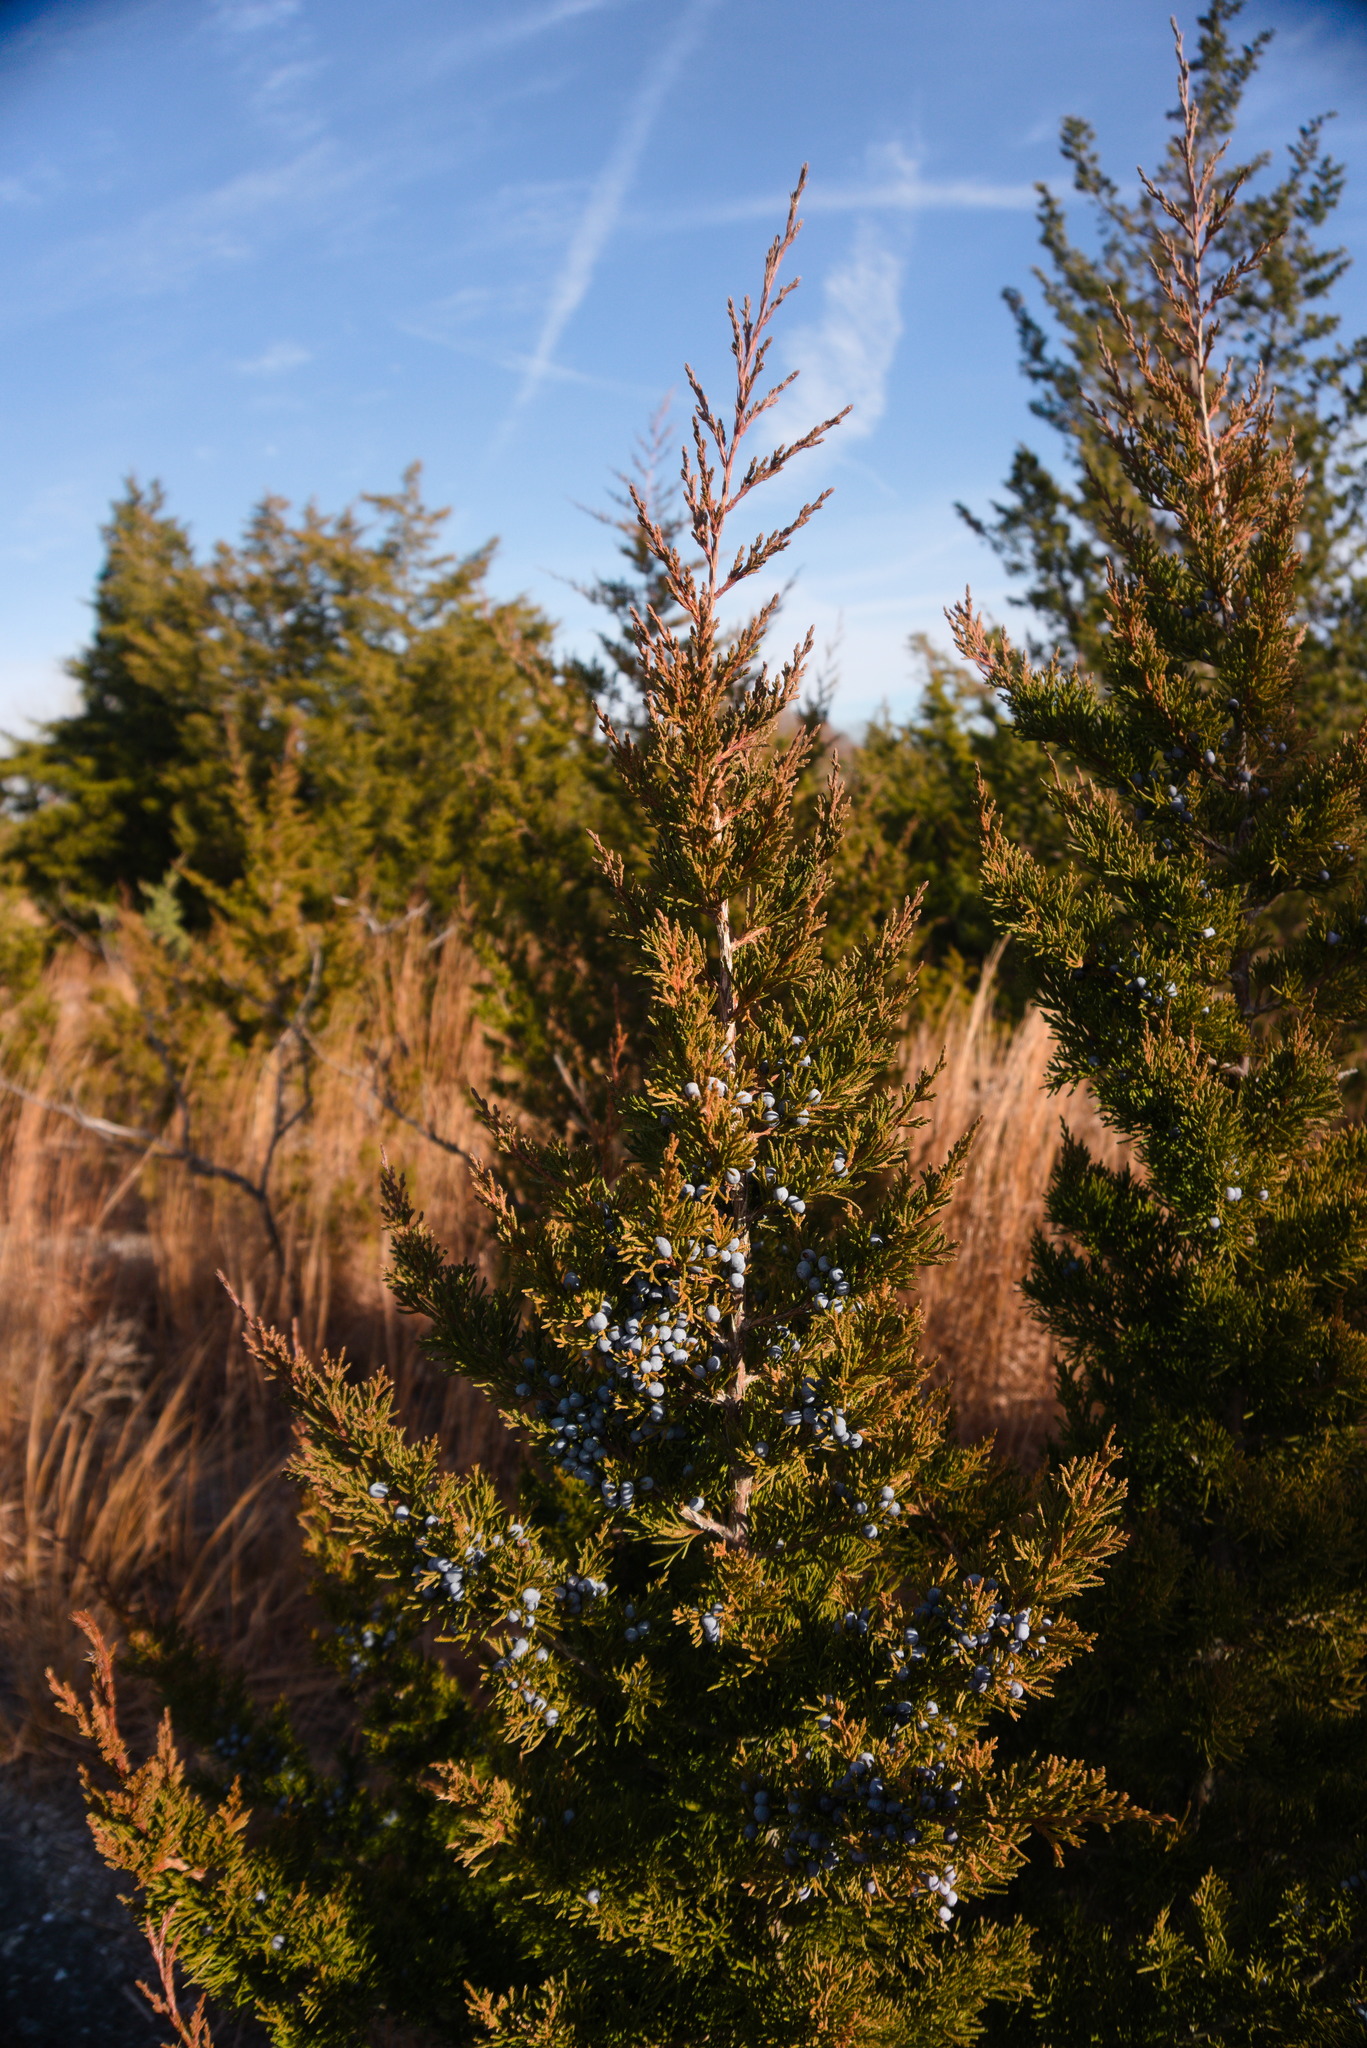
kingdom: Plantae
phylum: Tracheophyta
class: Pinopsida
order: Pinales
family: Cupressaceae
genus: Juniperus
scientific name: Juniperus virginiana
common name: Red juniper
